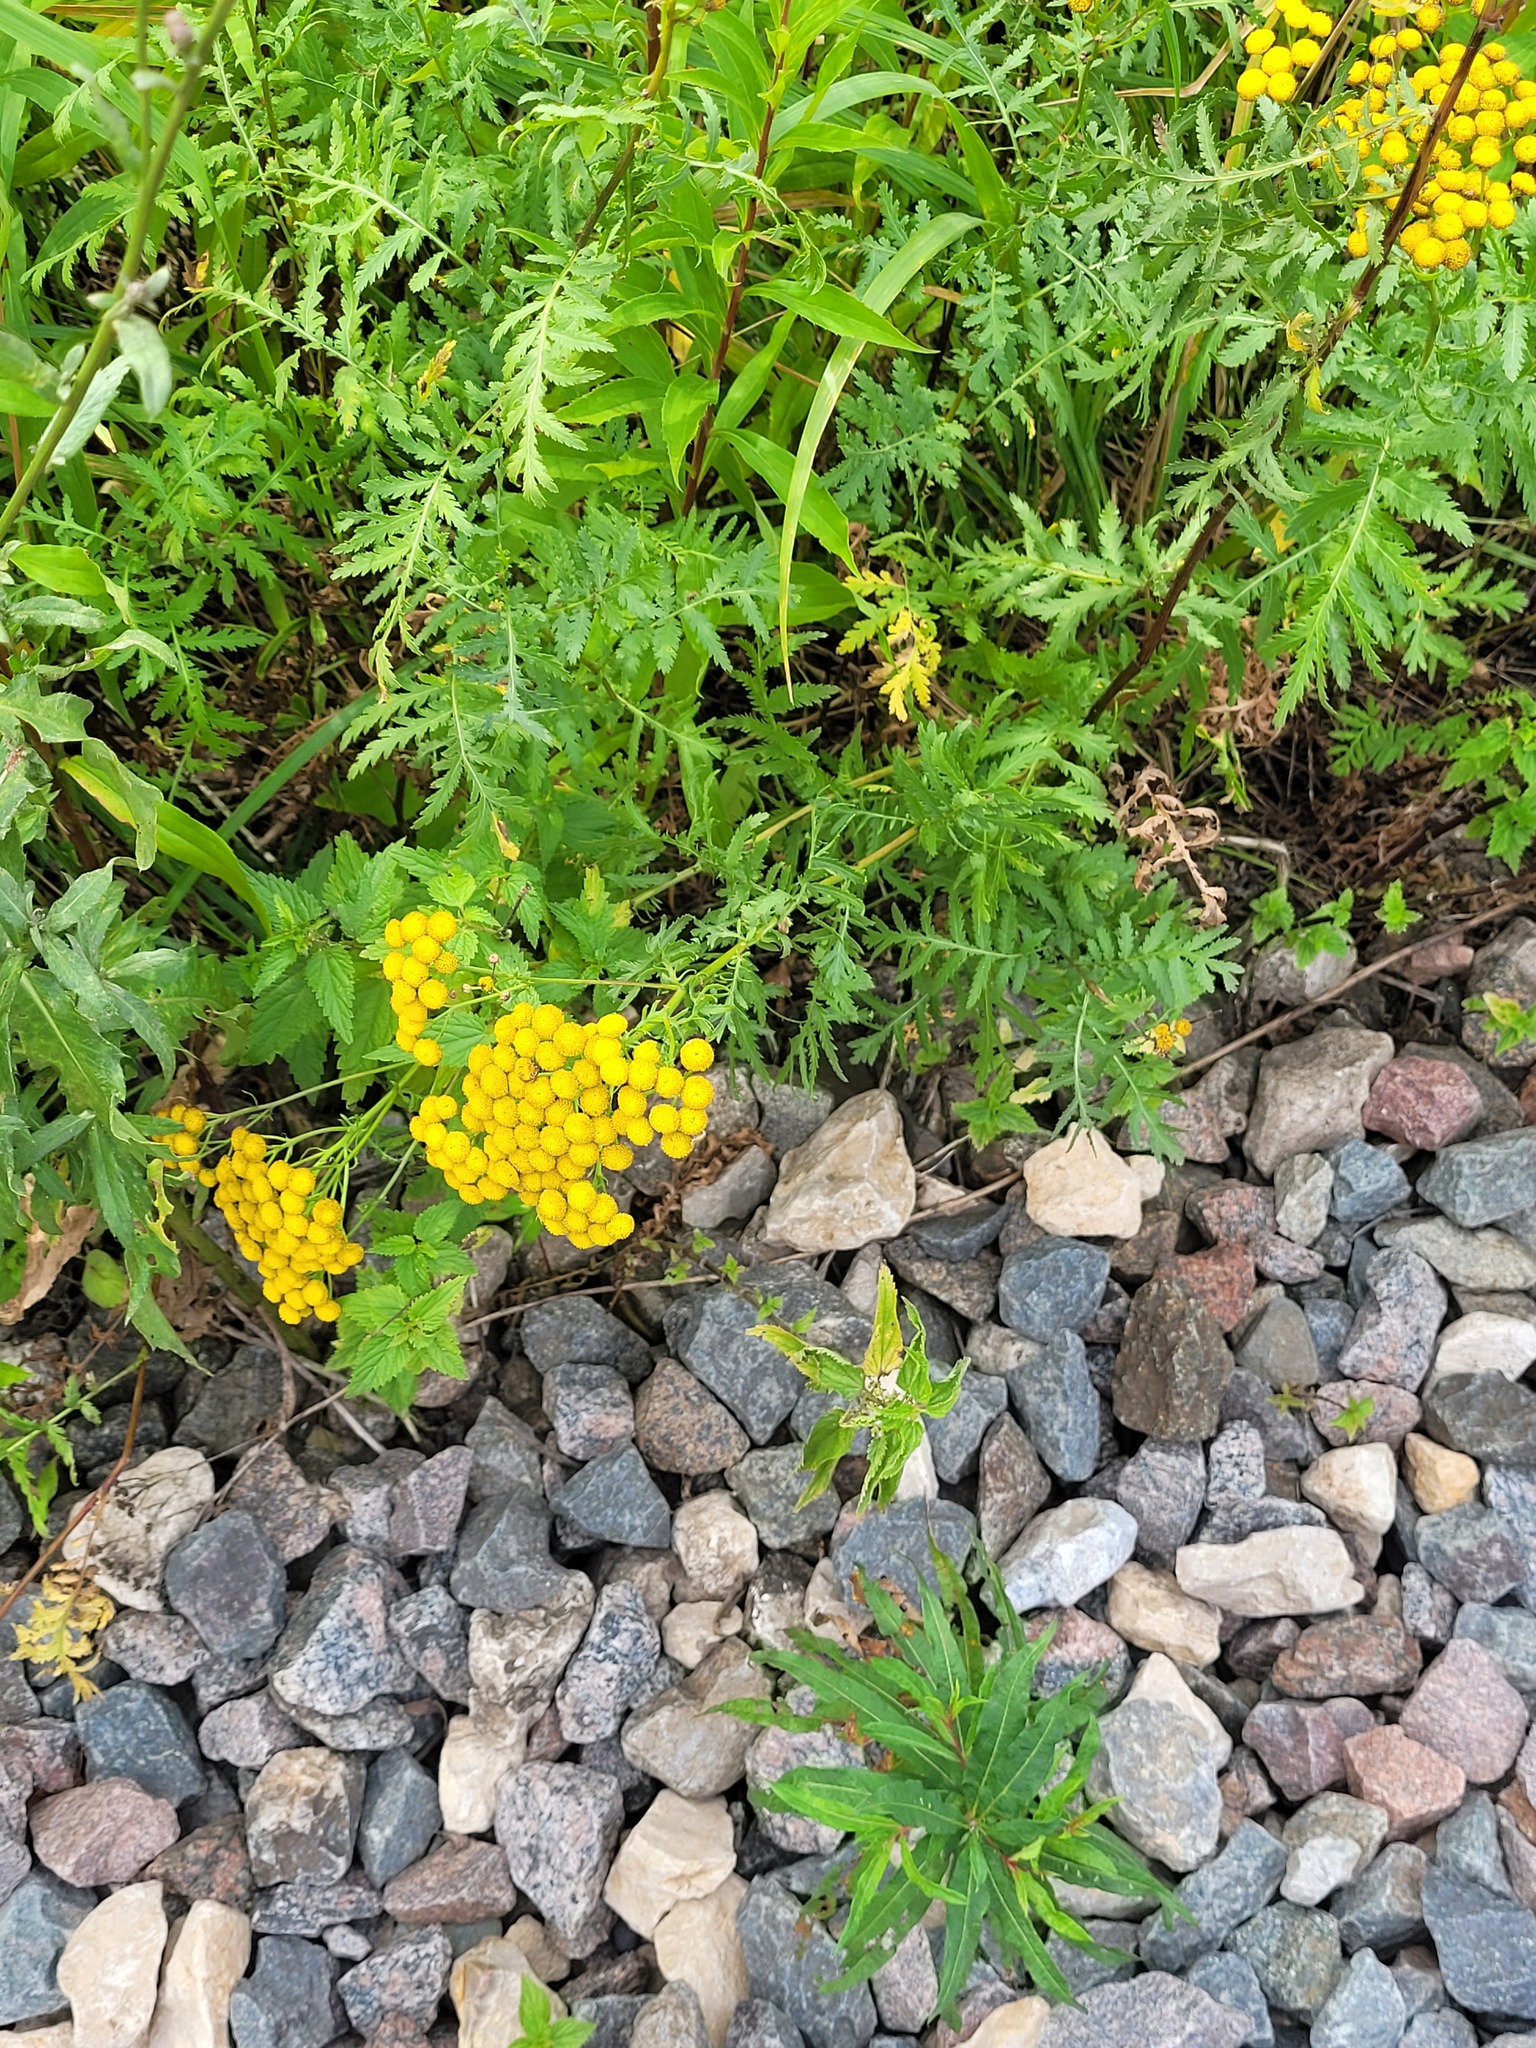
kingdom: Plantae
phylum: Tracheophyta
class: Magnoliopsida
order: Rosales
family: Urticaceae
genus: Urtica
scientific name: Urtica dioica
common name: Common nettle
